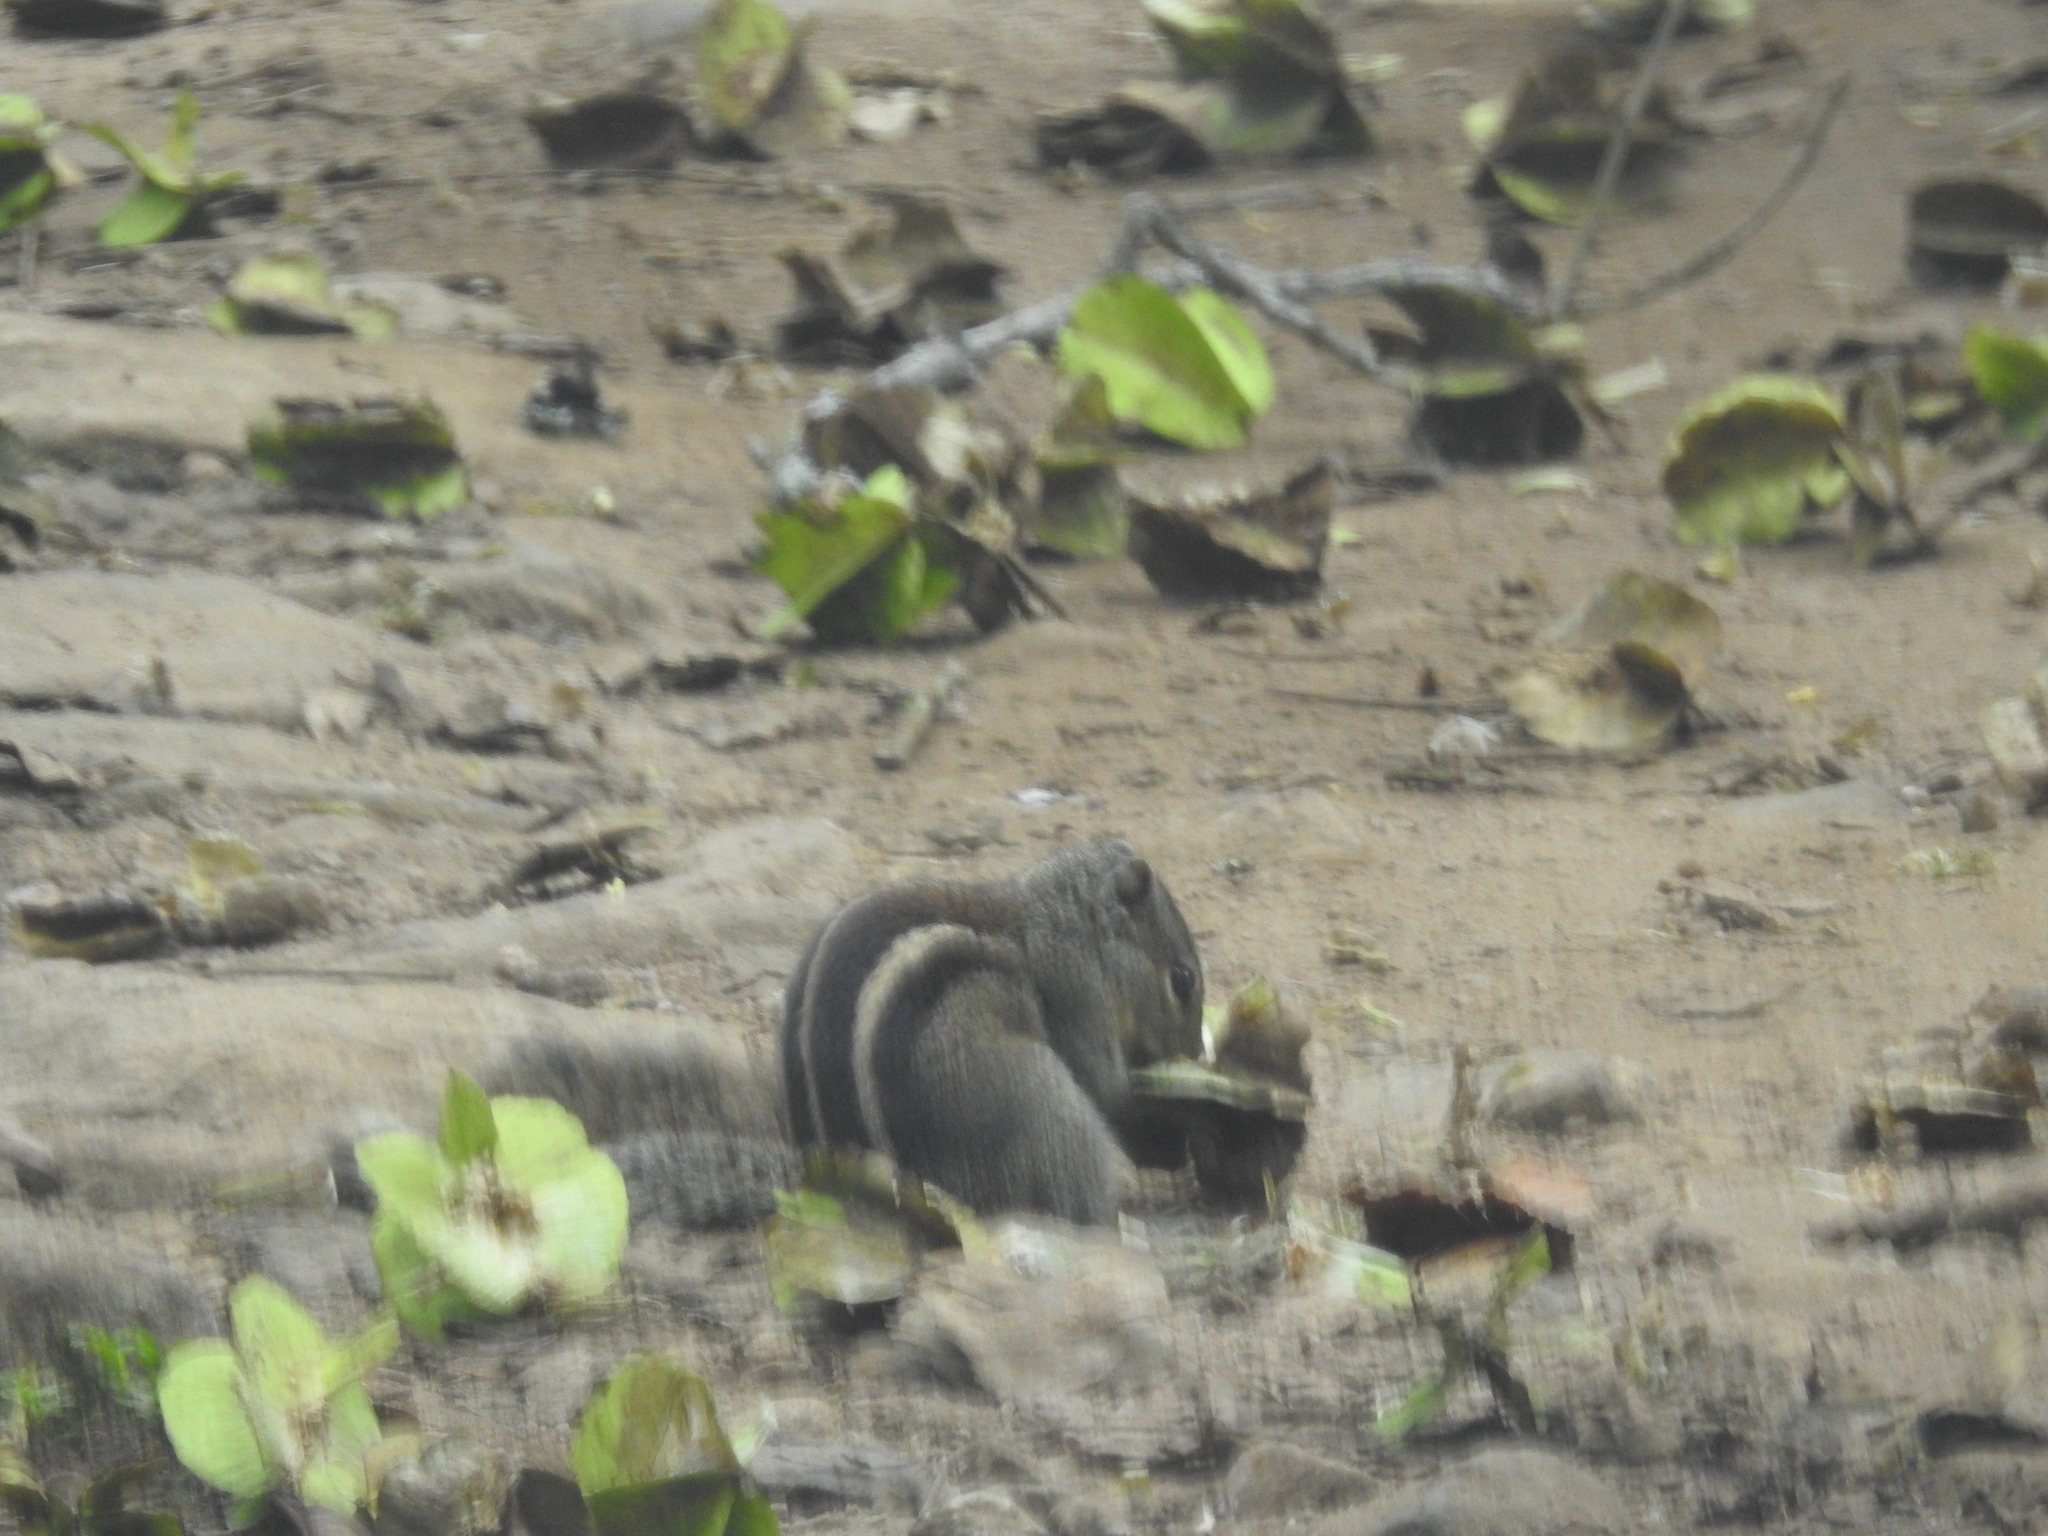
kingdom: Animalia
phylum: Chordata
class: Mammalia
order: Rodentia
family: Sciuridae
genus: Funambulus
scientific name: Funambulus palmarum
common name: Indian palm squirrel
